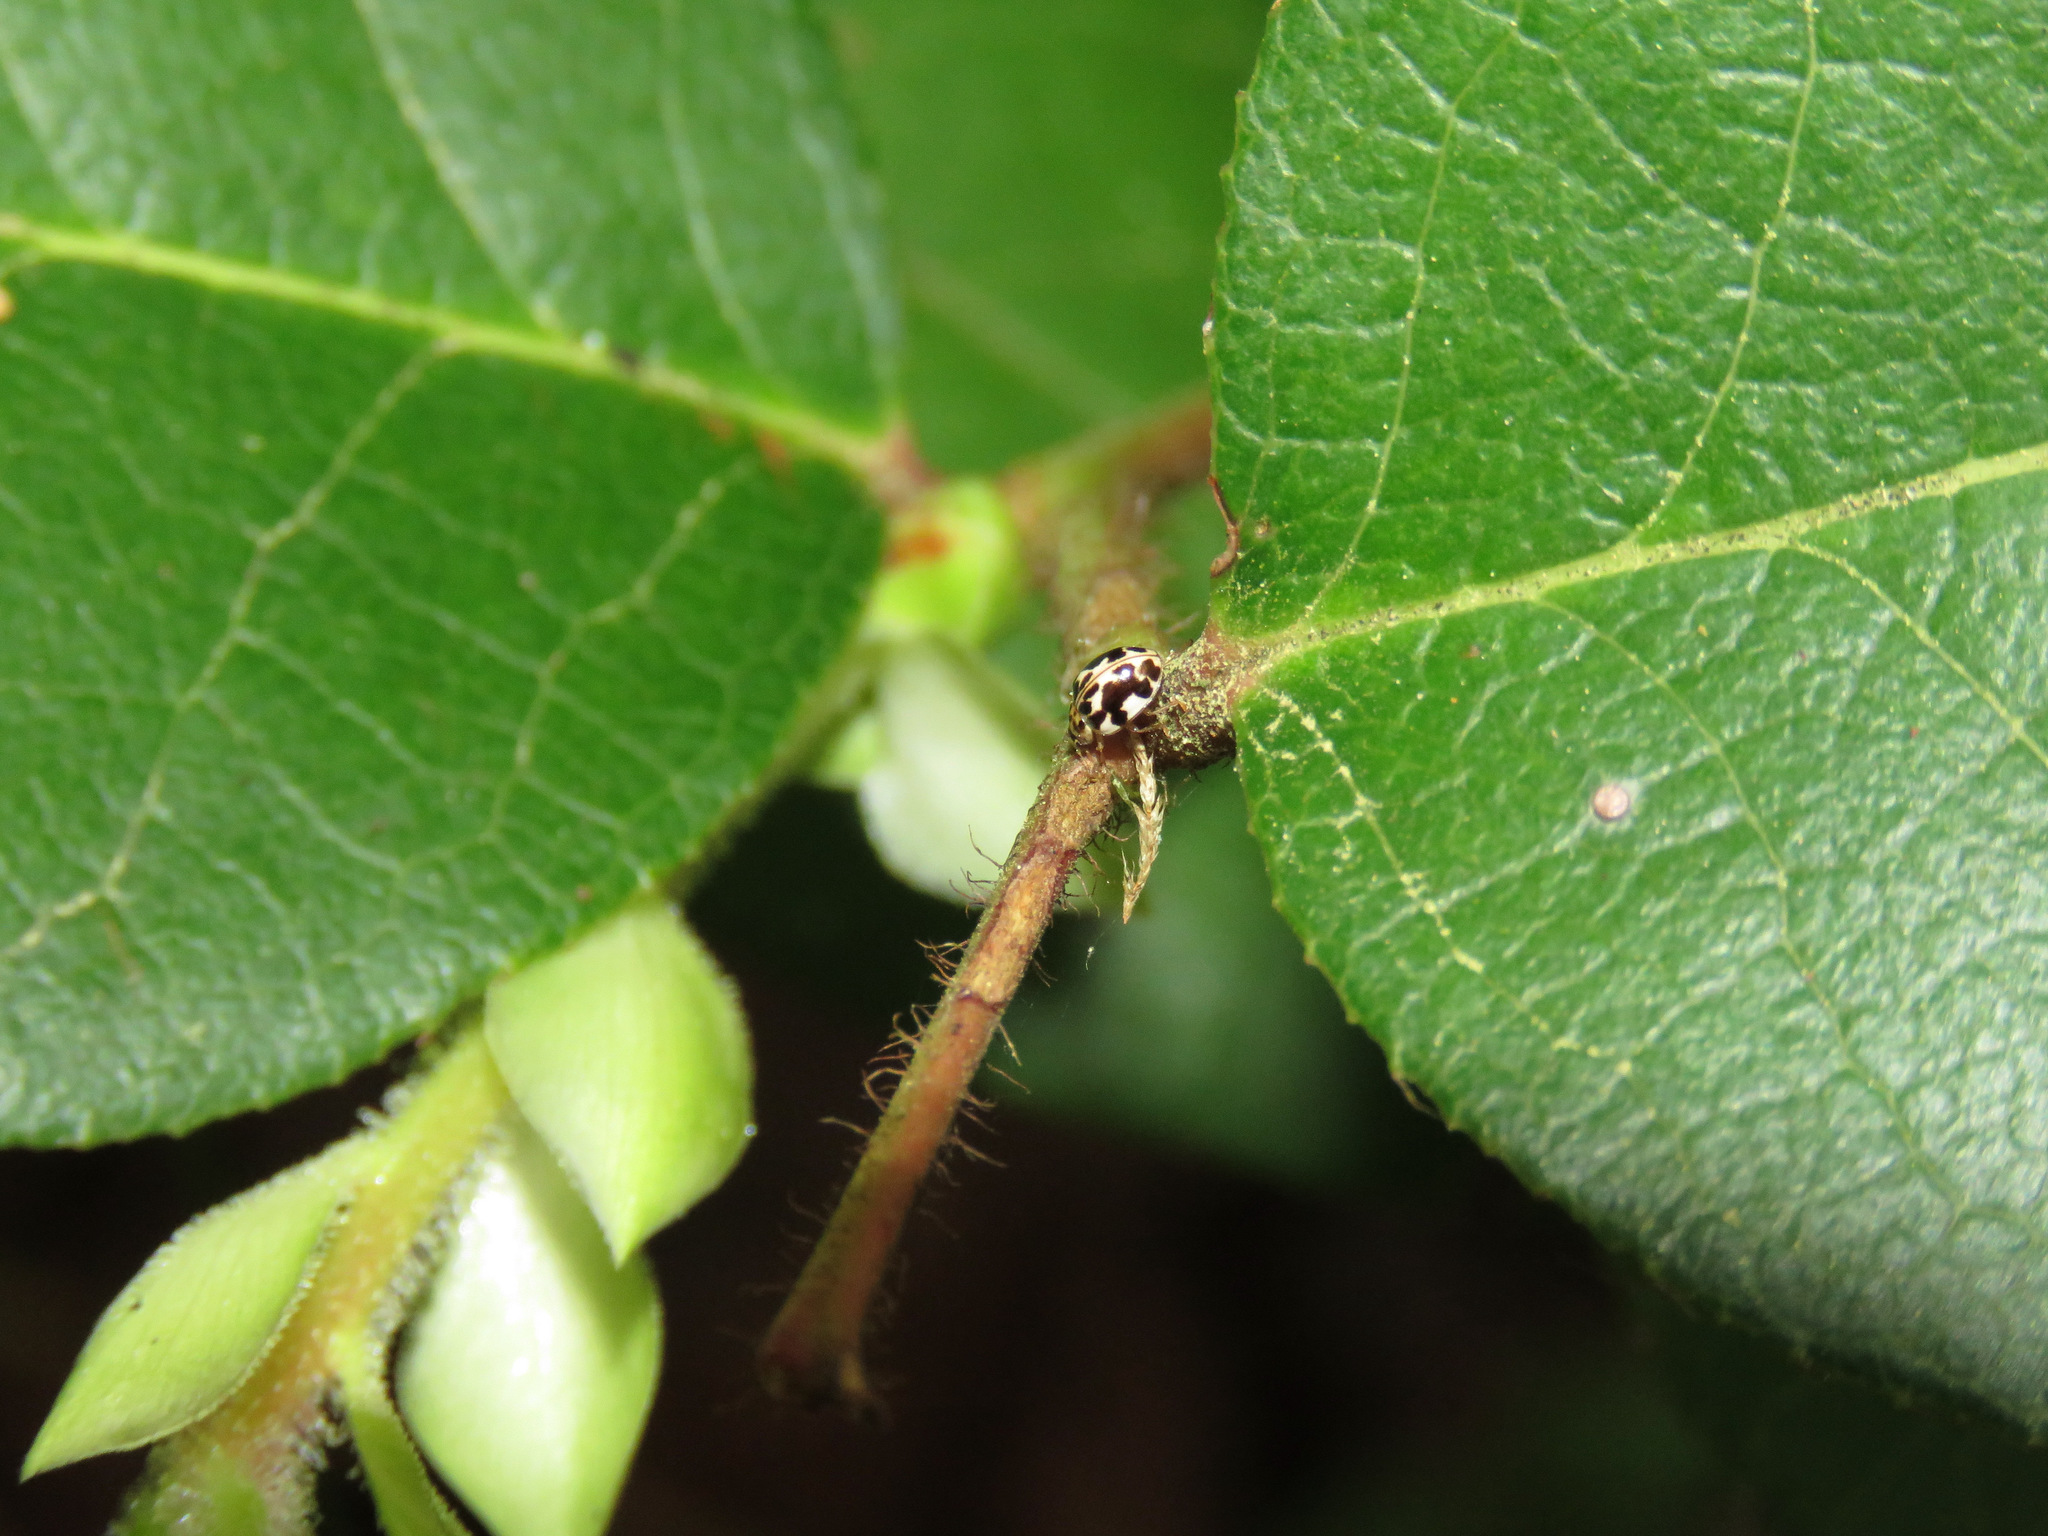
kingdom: Animalia
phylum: Arthropoda
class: Insecta
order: Coleoptera
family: Coccinellidae
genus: Psyllobora
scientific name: Psyllobora vigintimaculata
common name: Ladybird beetle
